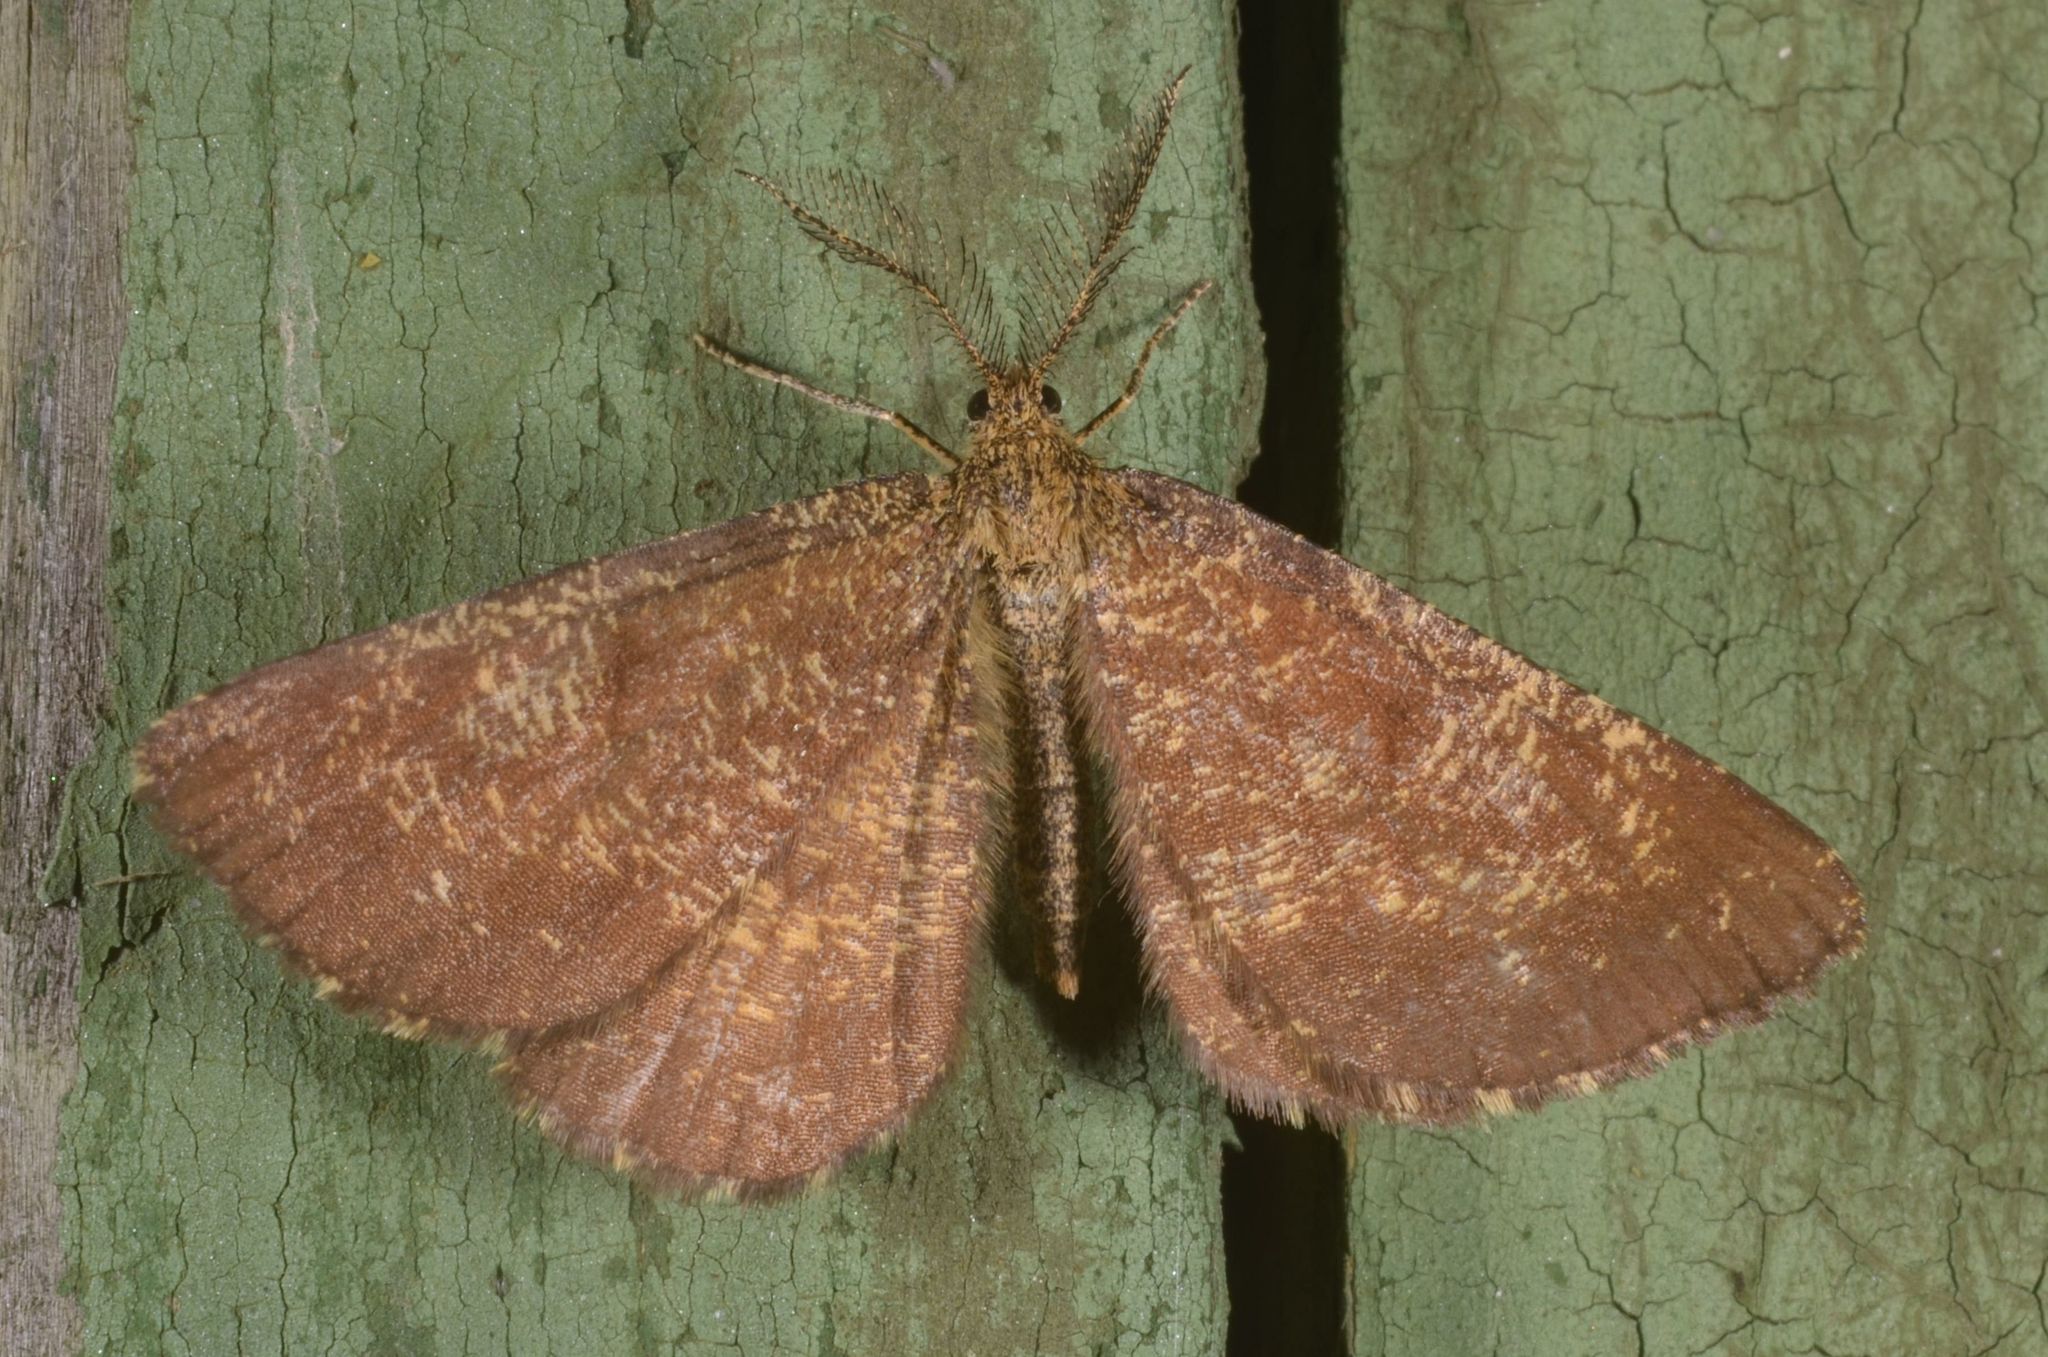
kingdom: Animalia
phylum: Arthropoda
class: Insecta
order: Lepidoptera
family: Geometridae
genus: Ematurga
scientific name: Ematurga atomaria
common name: Common heath
